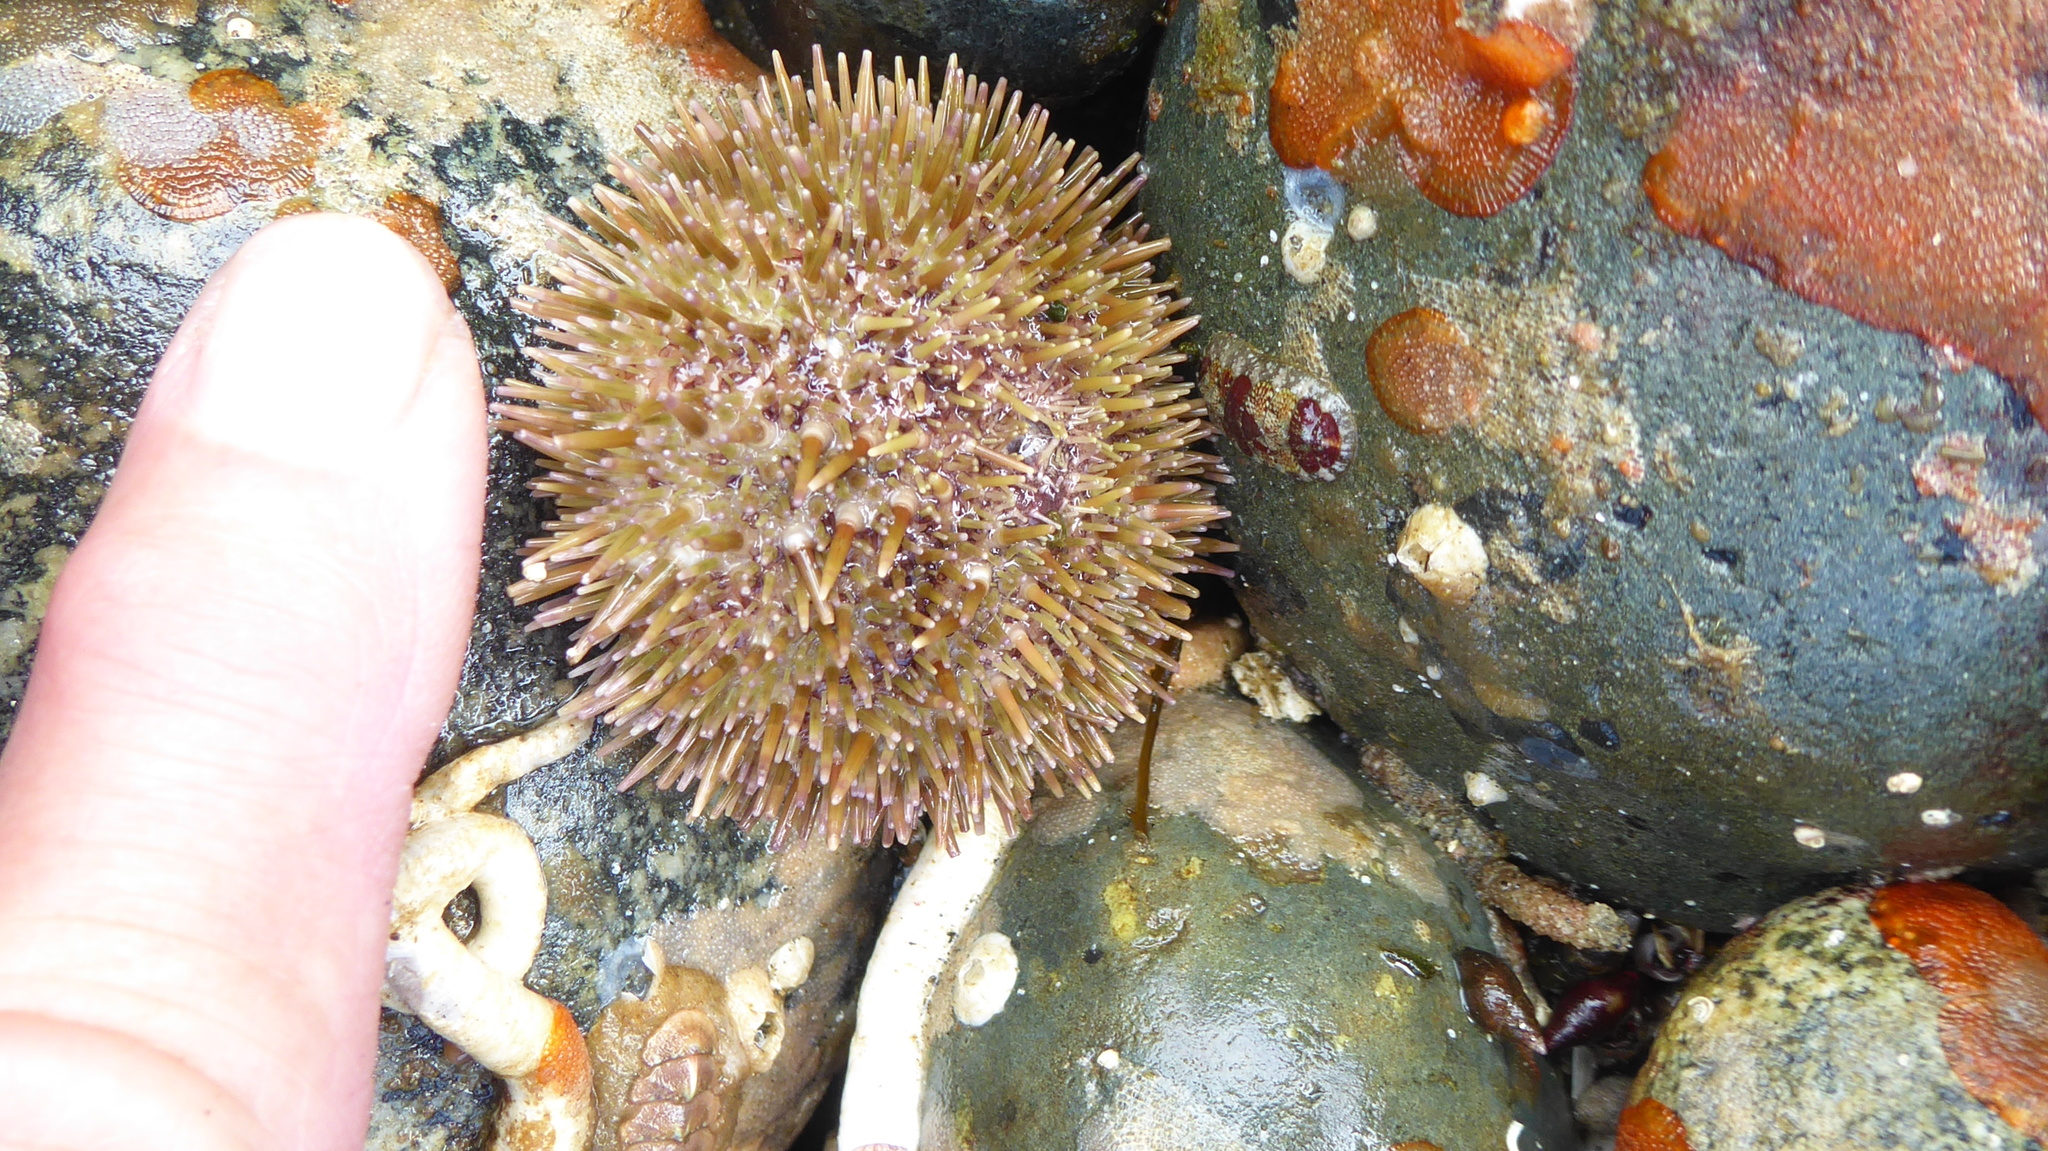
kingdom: Animalia
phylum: Echinodermata
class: Echinoidea
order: Camarodonta
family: Strongylocentrotidae
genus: Strongylocentrotus
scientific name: Strongylocentrotus droebachiensis
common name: Northern sea urchin
